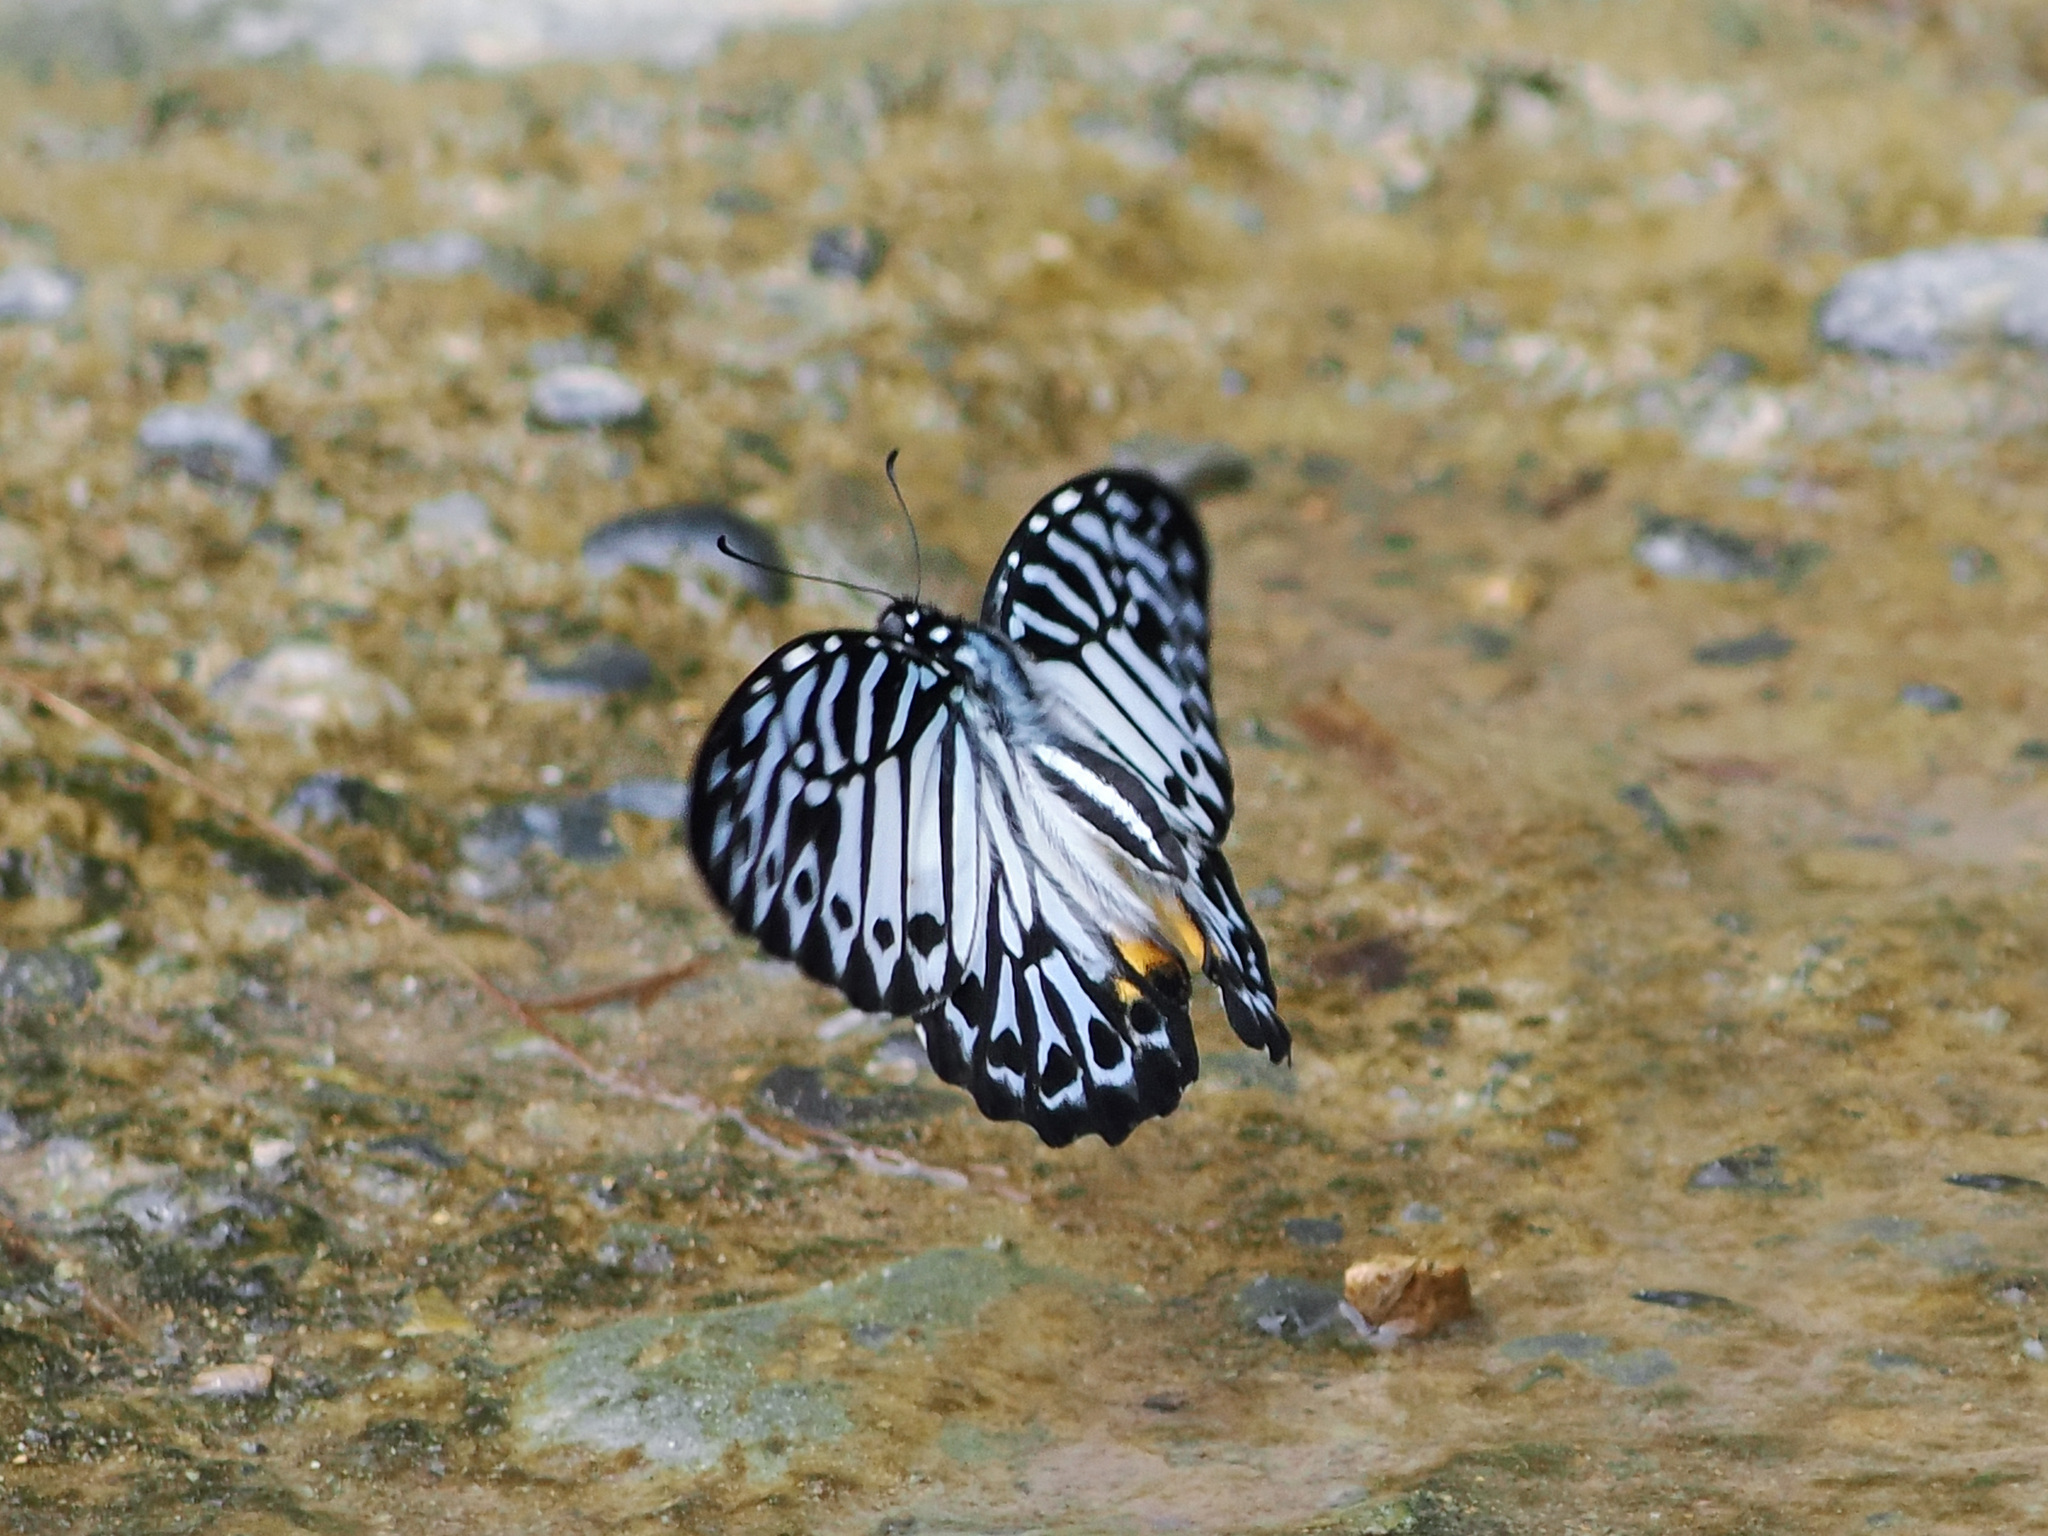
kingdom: Animalia
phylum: Arthropoda
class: Insecta
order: Lepidoptera
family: Papilionidae
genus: Graphium
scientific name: Graphium delesserti
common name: Malayan zebra
